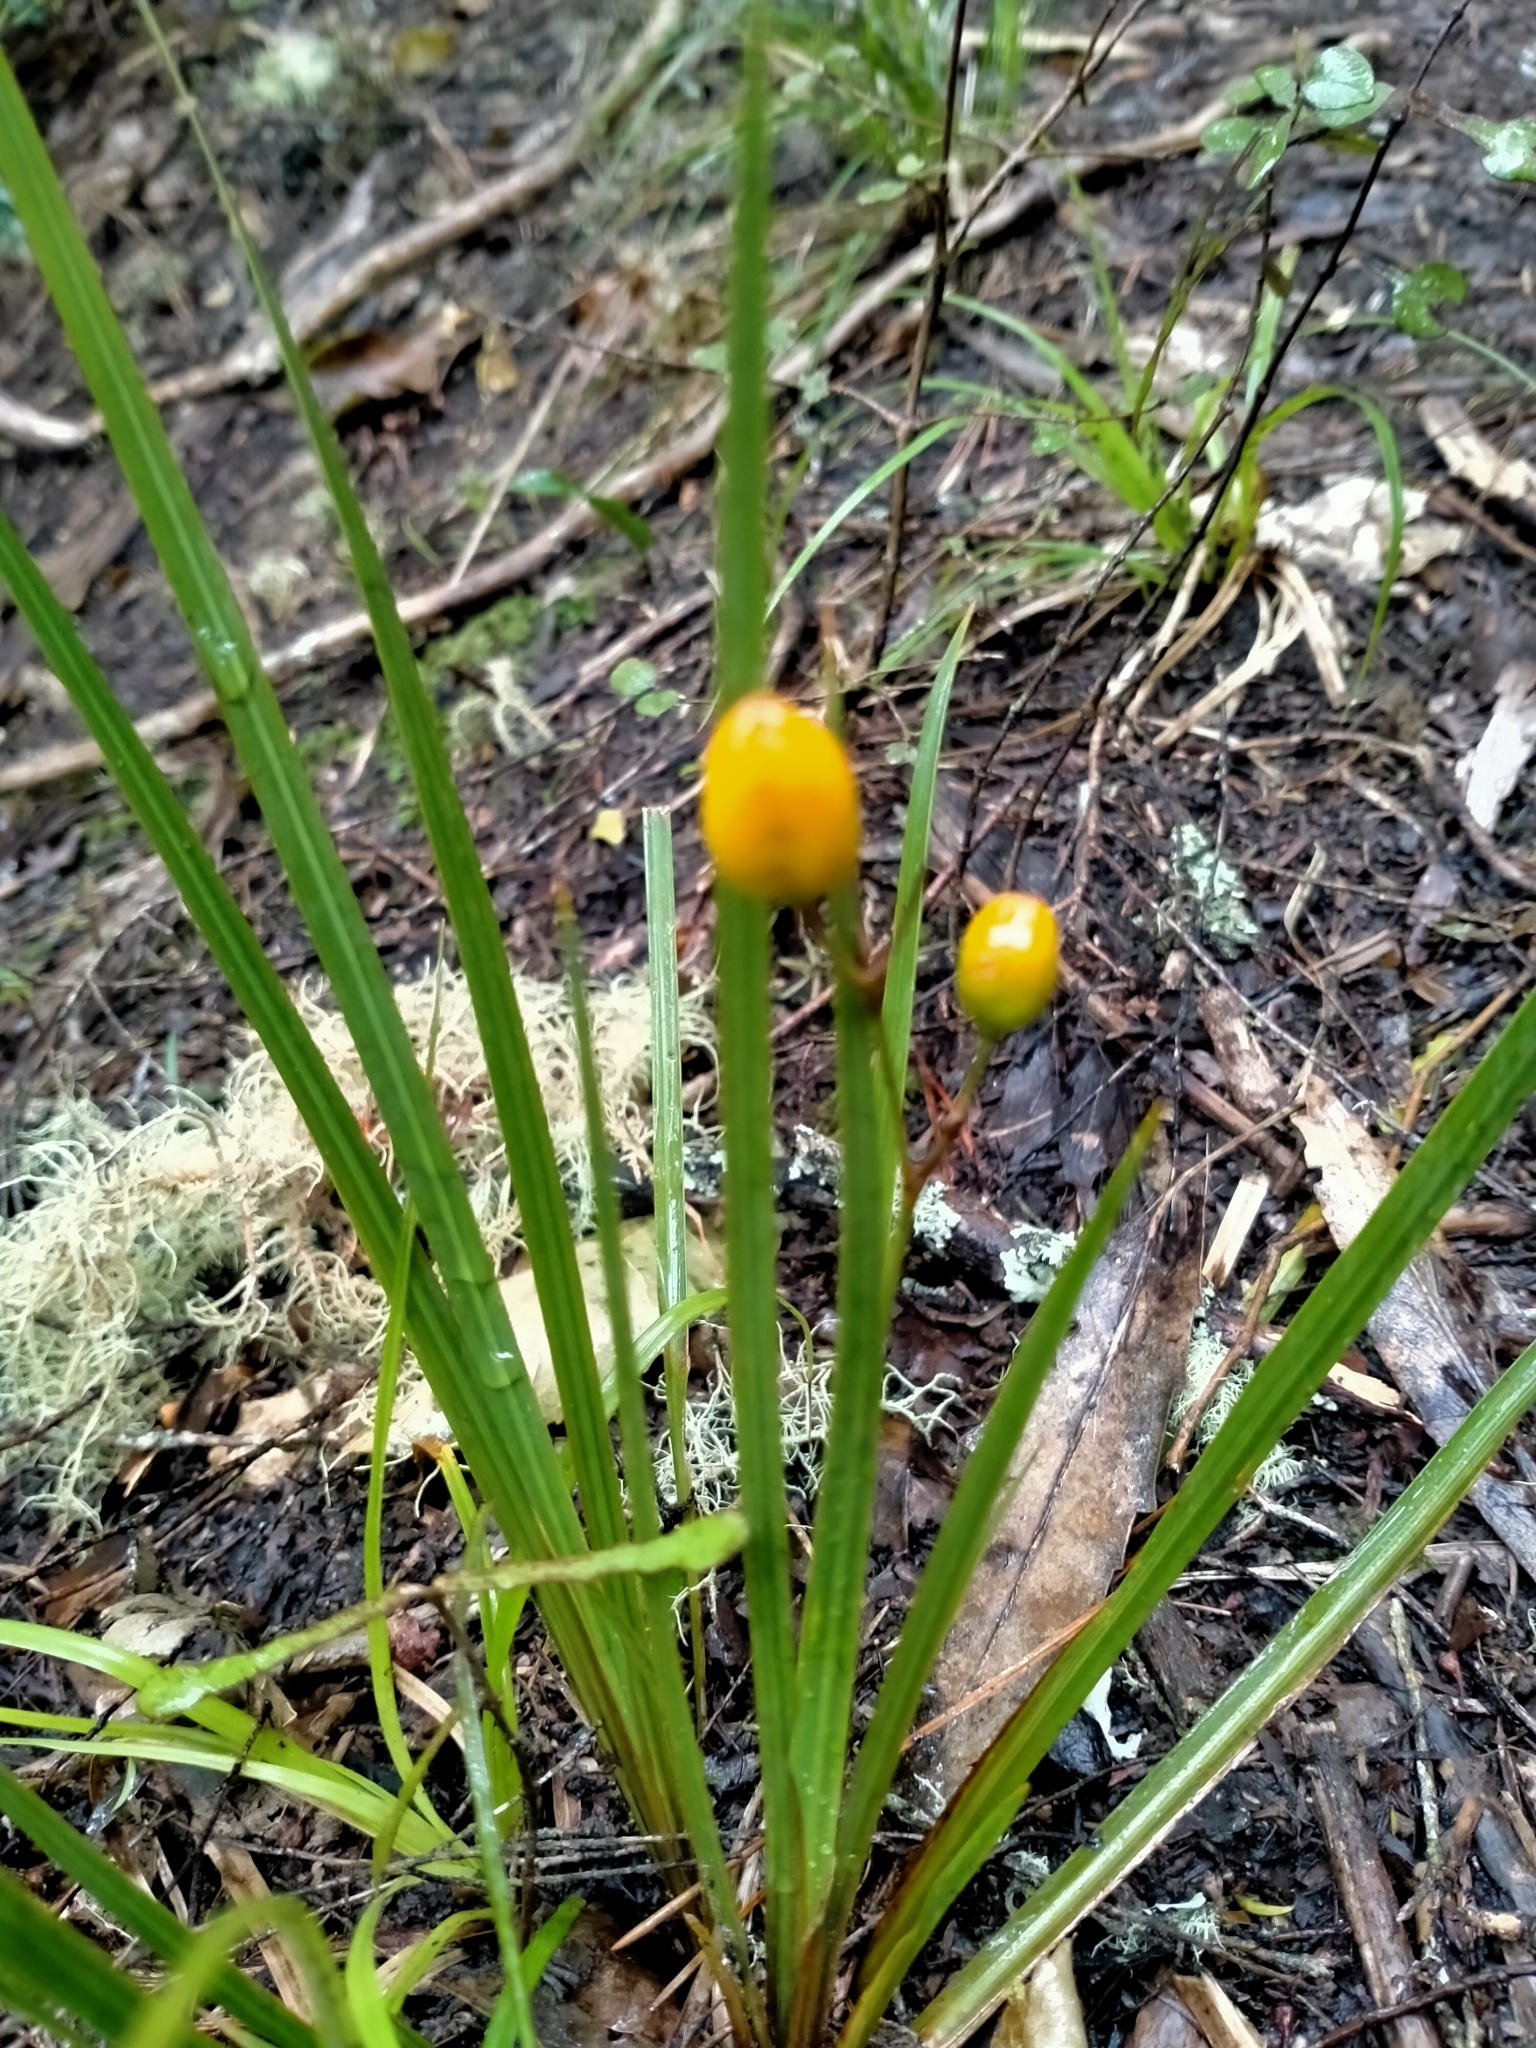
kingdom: Plantae
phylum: Tracheophyta
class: Liliopsida
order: Asparagales
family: Iridaceae
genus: Libertia
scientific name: Libertia ixioides
